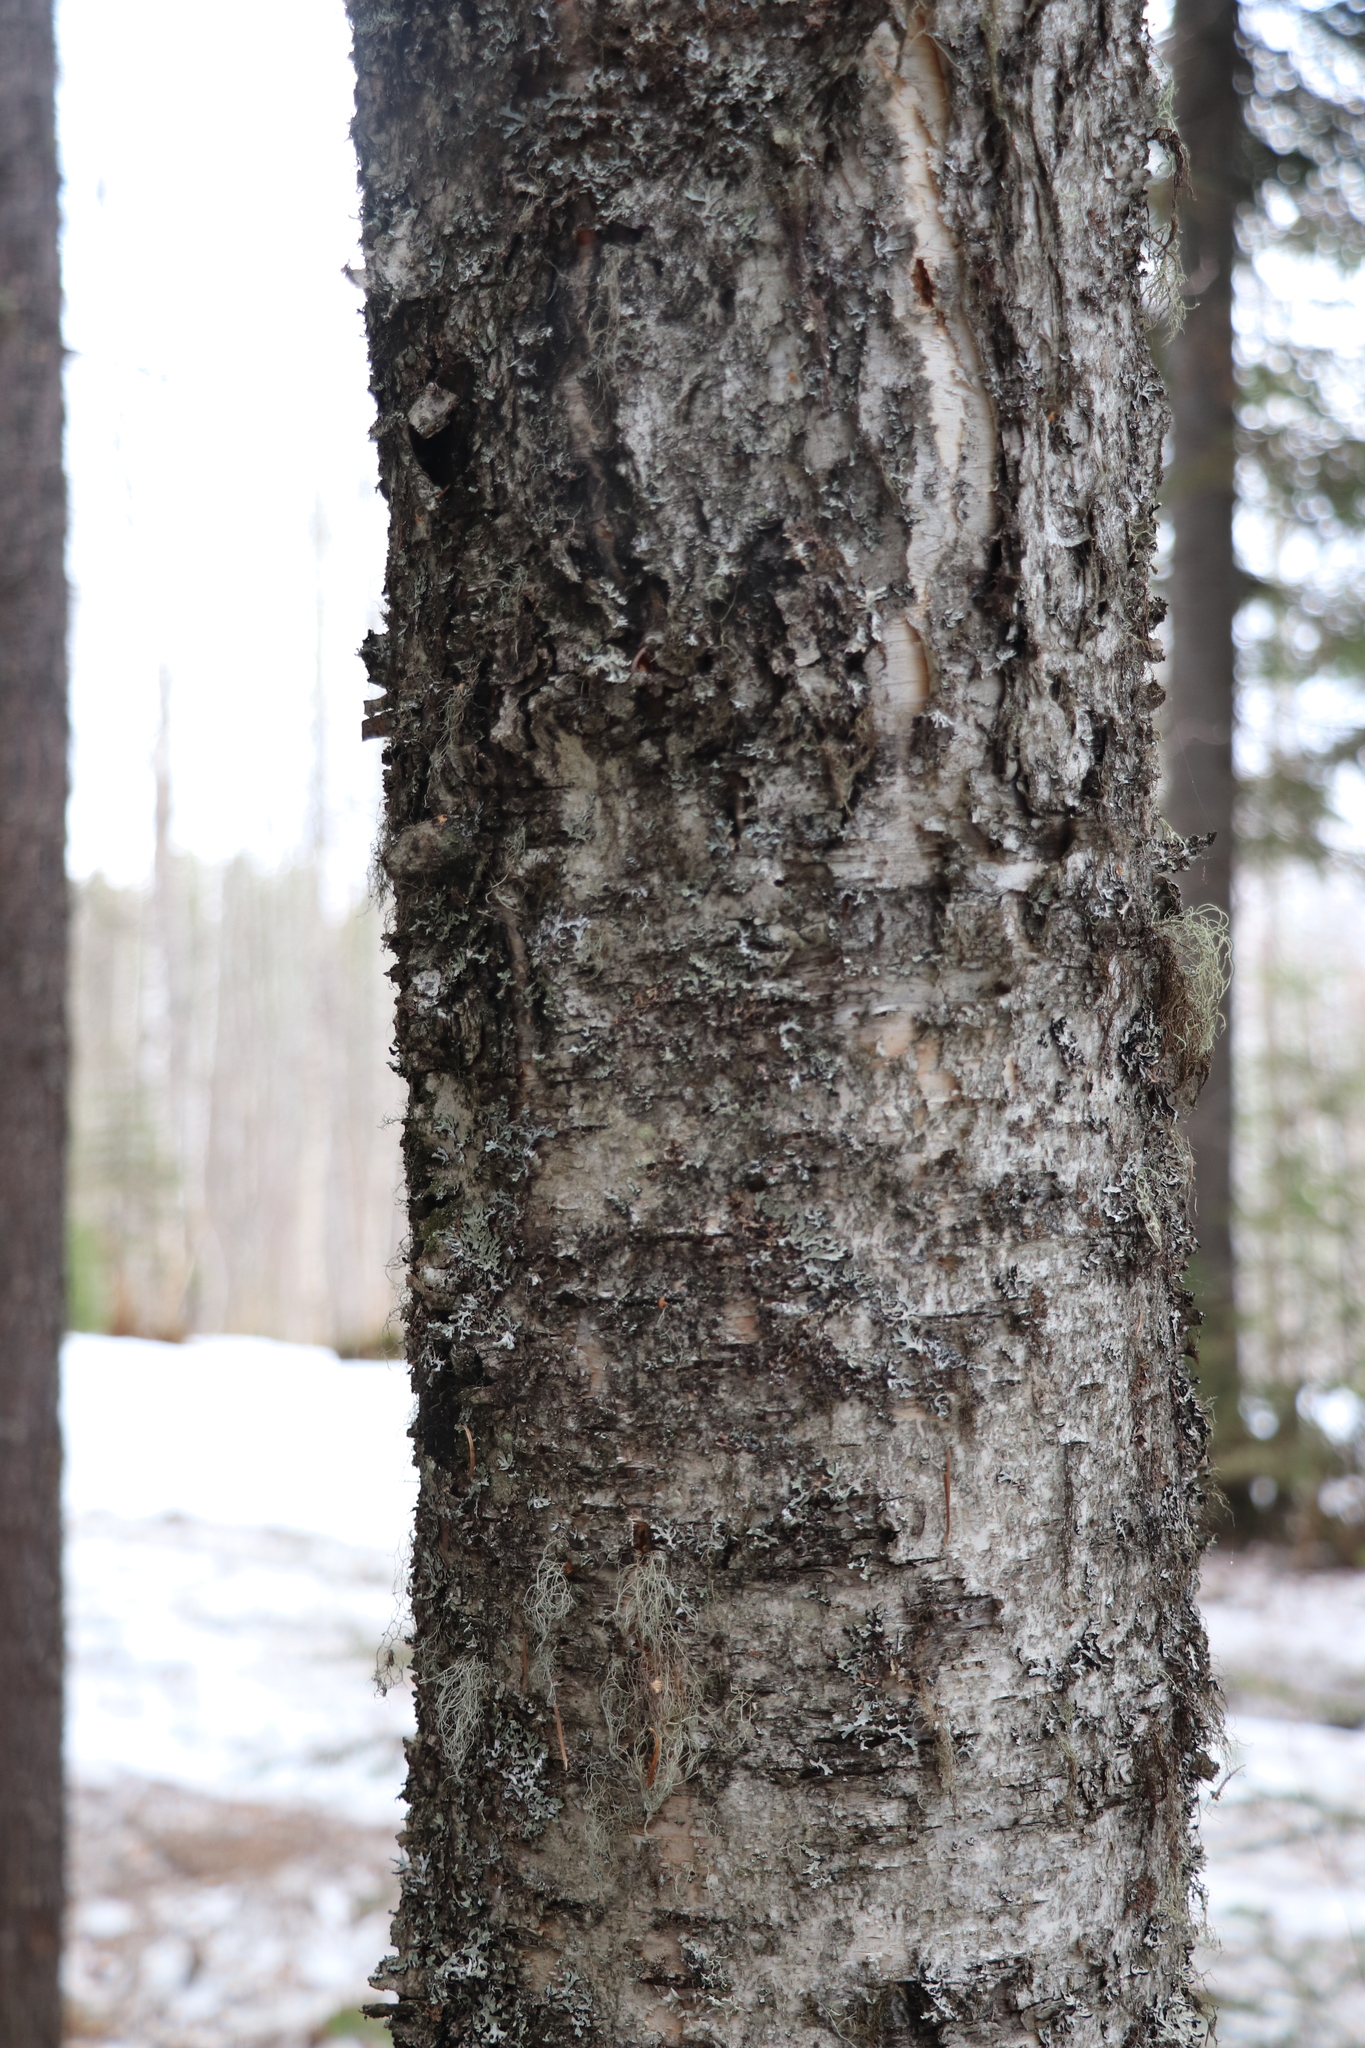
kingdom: Plantae
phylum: Tracheophyta
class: Magnoliopsida
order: Fagales
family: Betulaceae
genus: Betula
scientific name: Betula pubescens
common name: Downy birch
